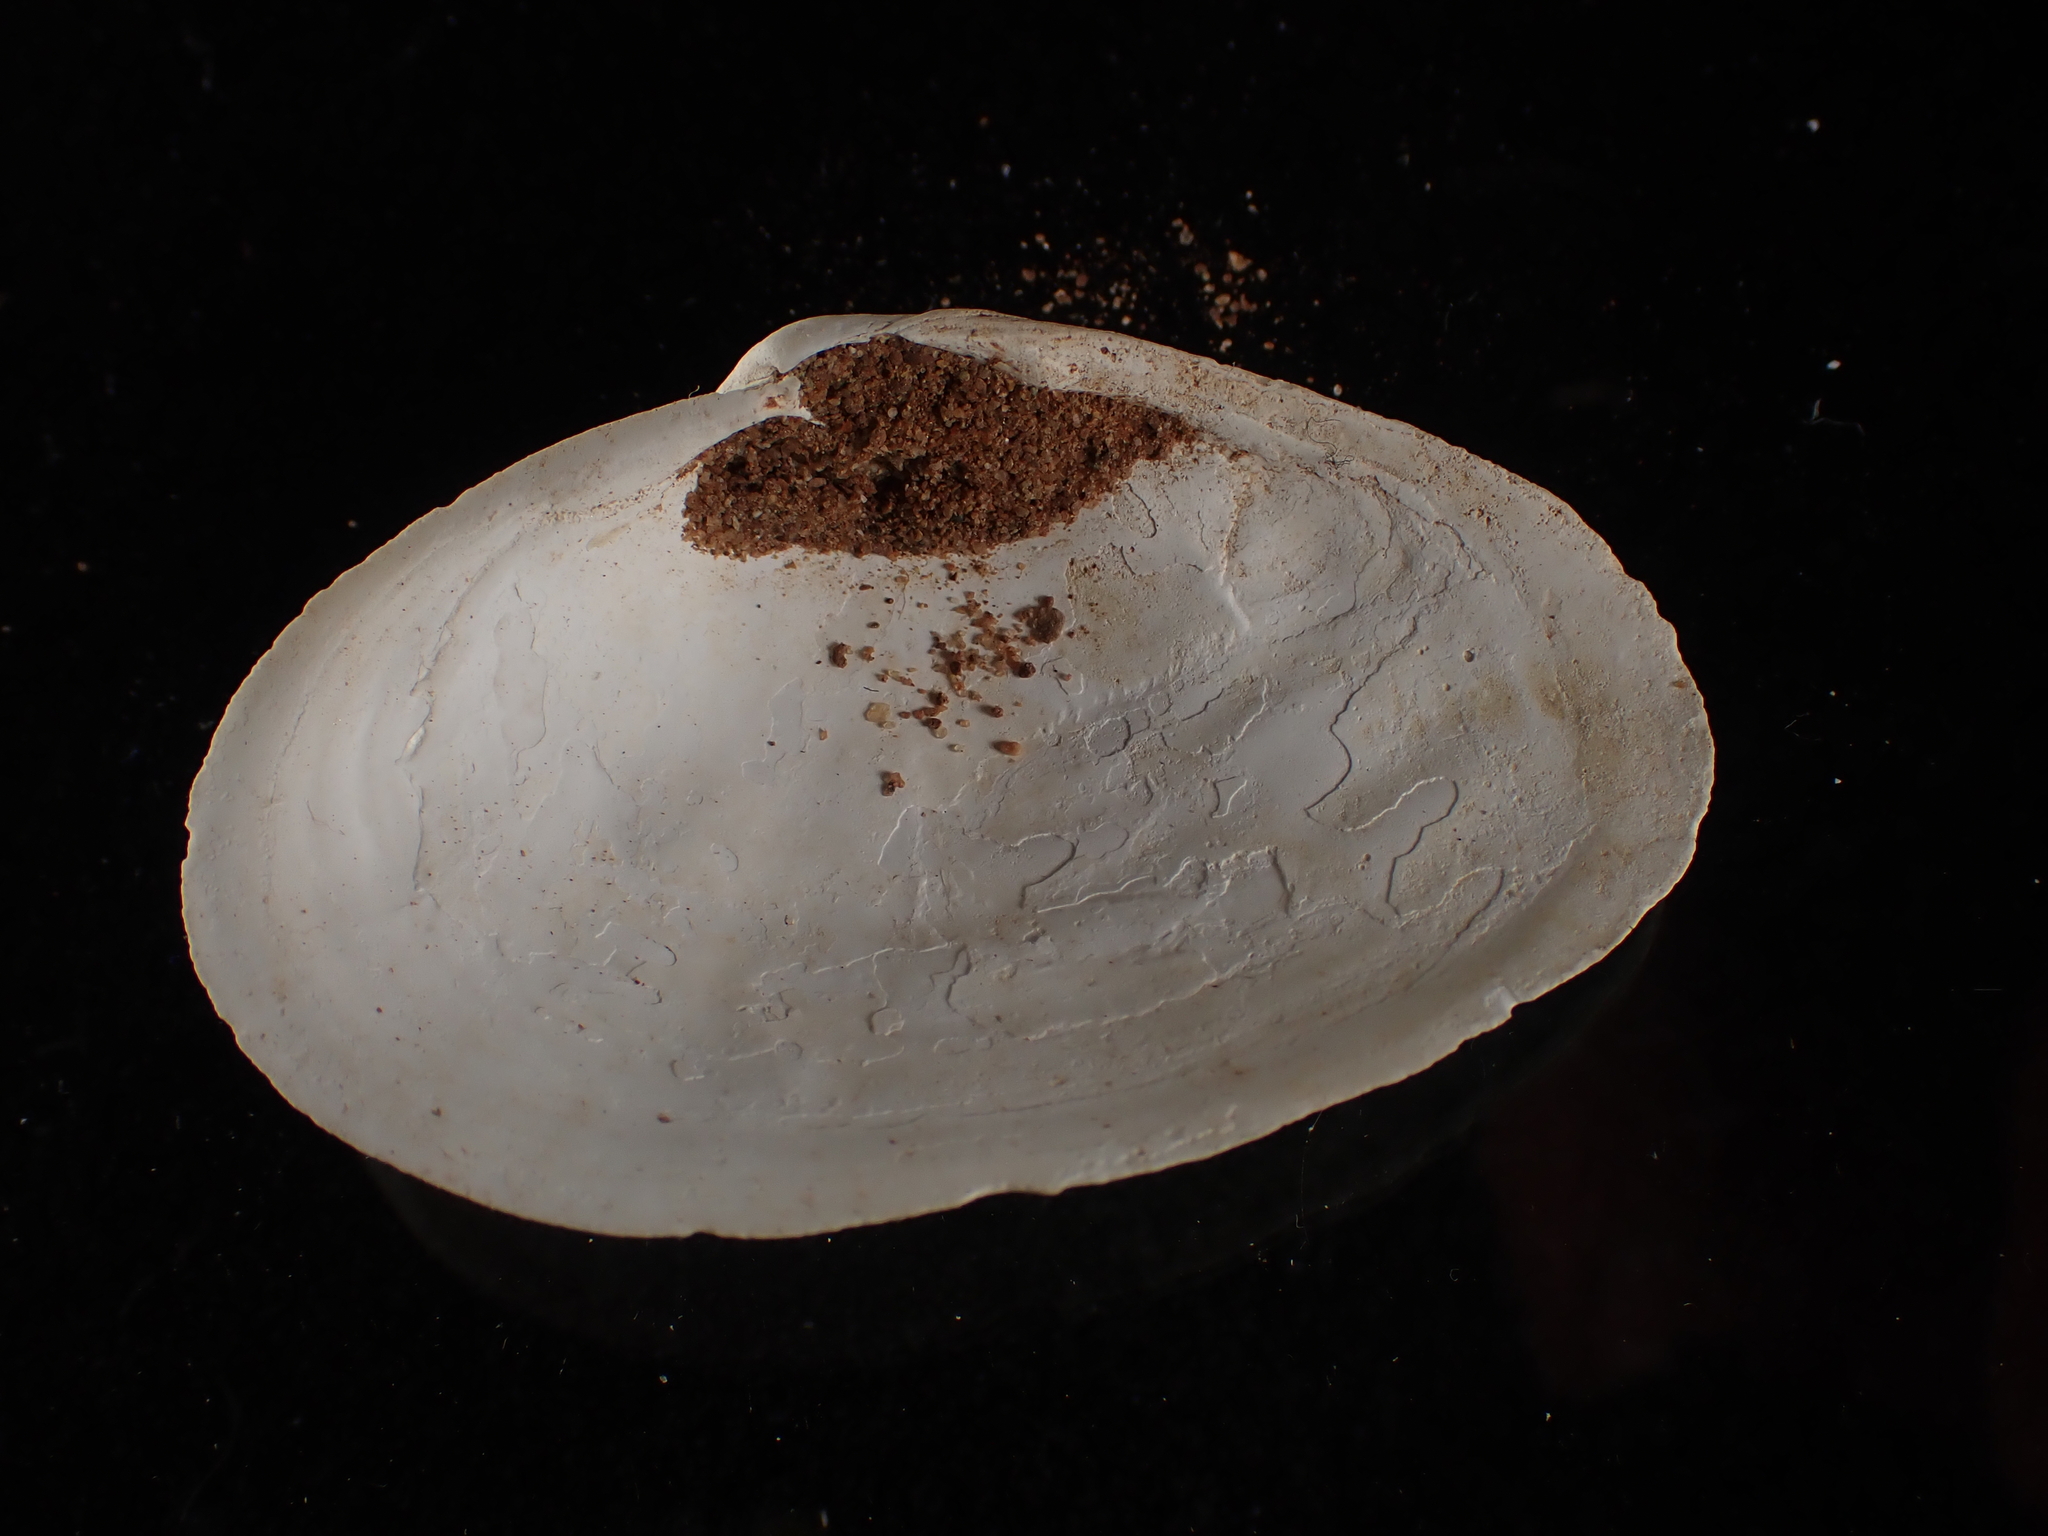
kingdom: Animalia
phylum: Mollusca
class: Bivalvia
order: Myida
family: Myidae
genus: Mya
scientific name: Mya arenaria
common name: Soft-shelled clam
